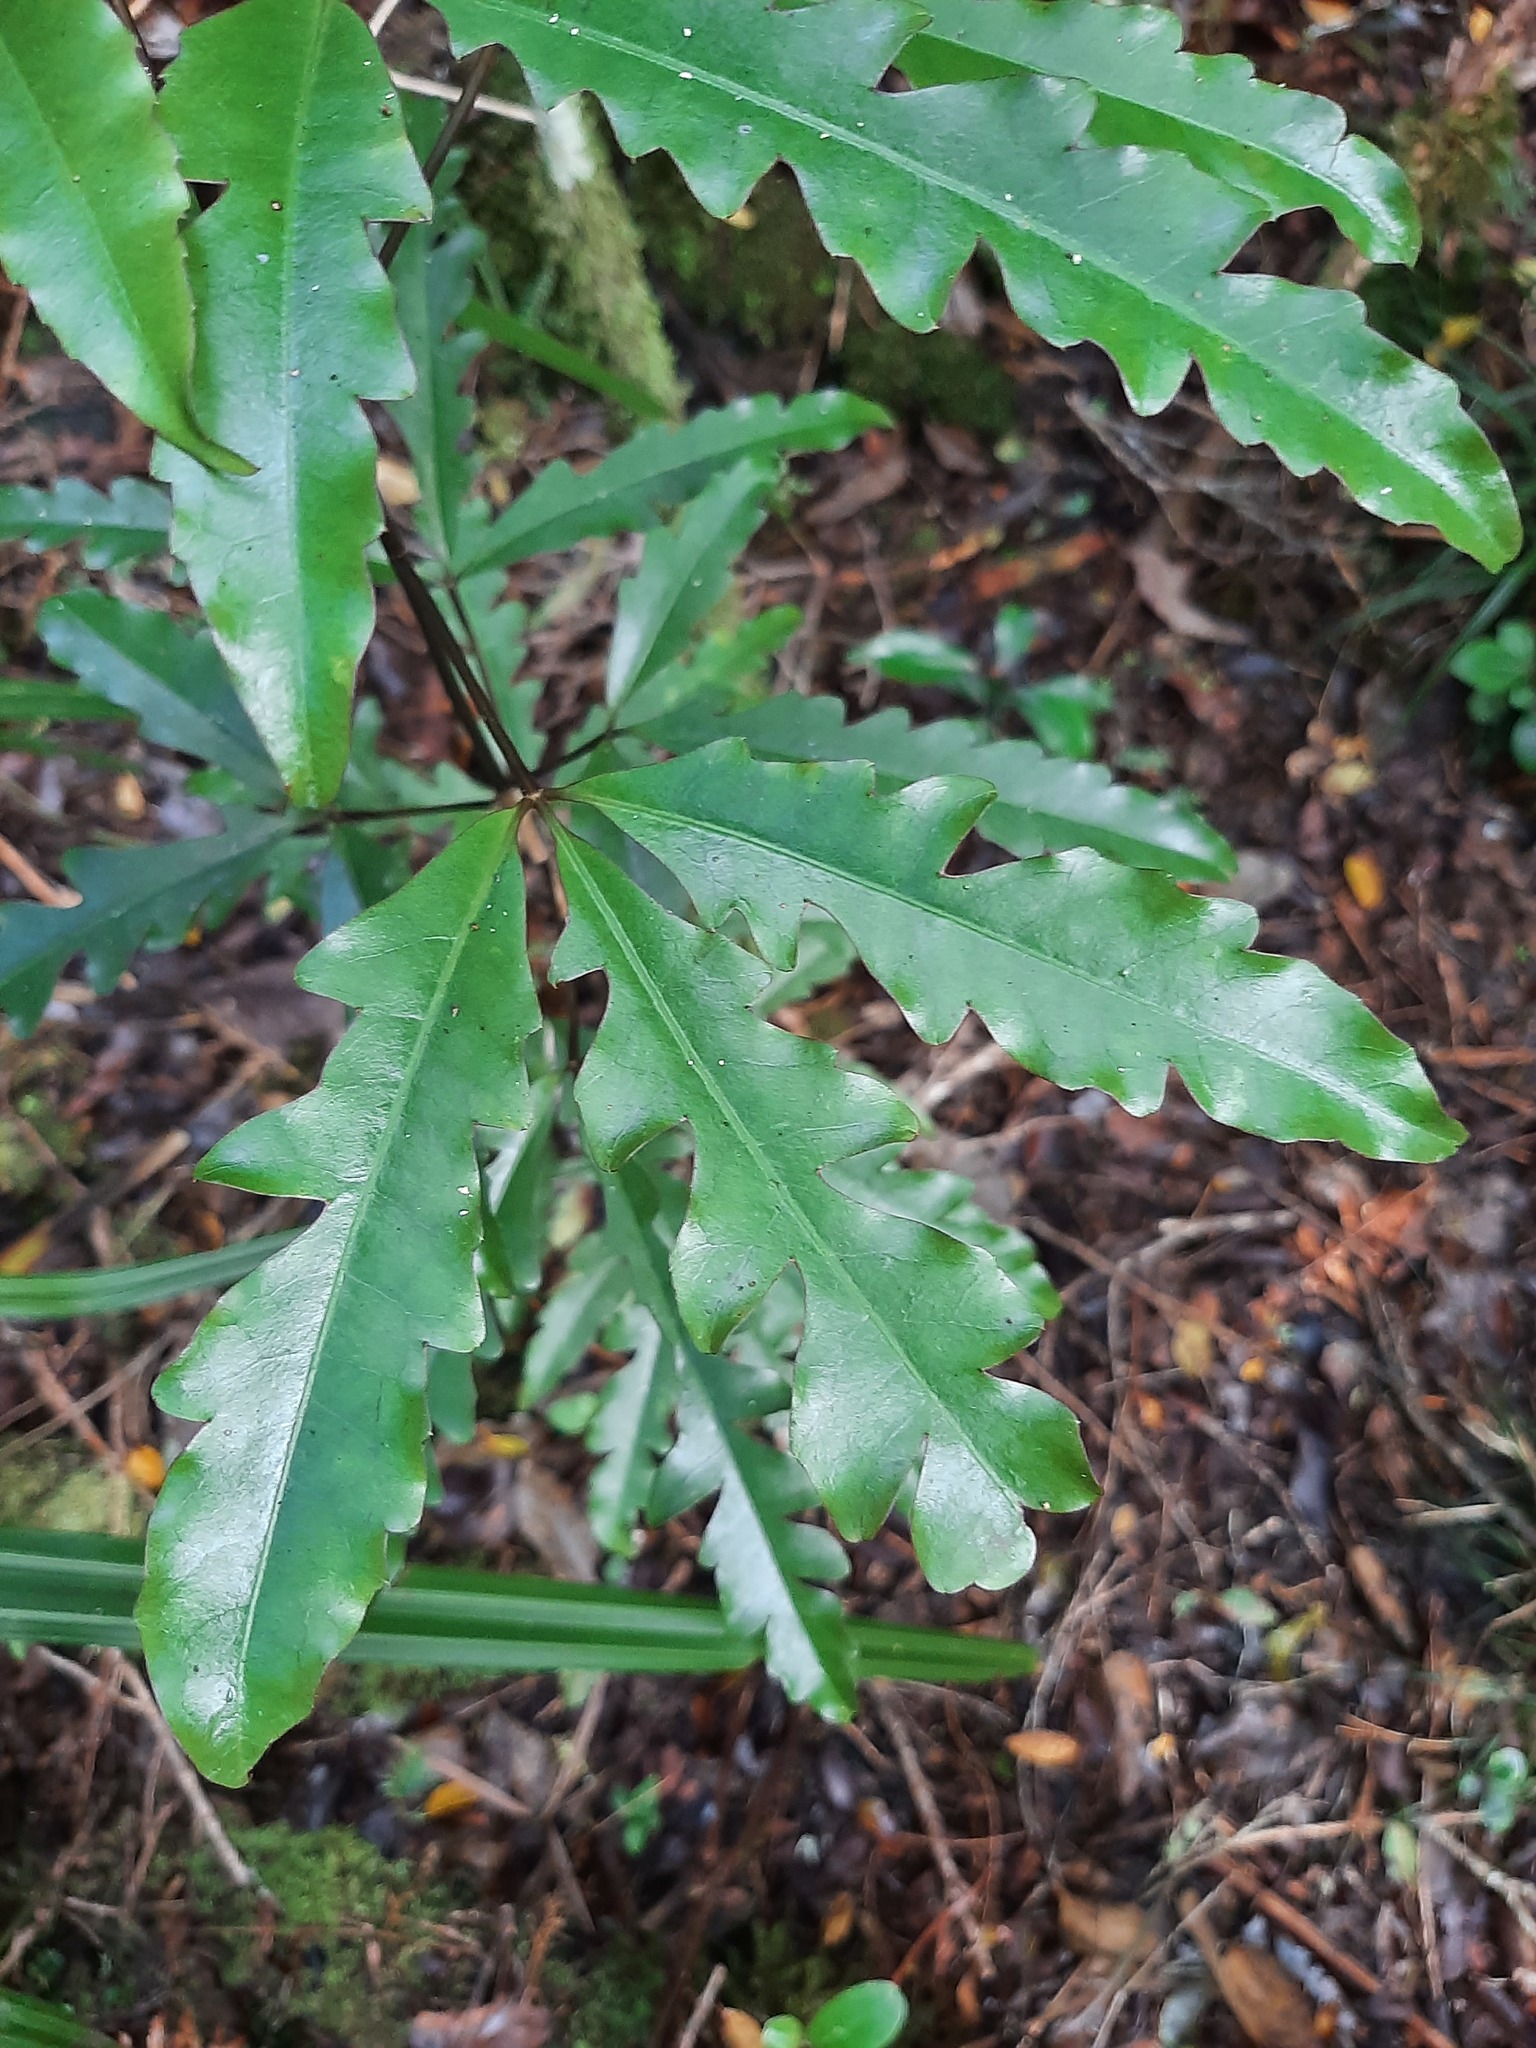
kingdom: Plantae
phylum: Tracheophyta
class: Magnoliopsida
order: Apiales
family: Araliaceae
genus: Raukaua
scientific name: Raukaua edgerleyi
